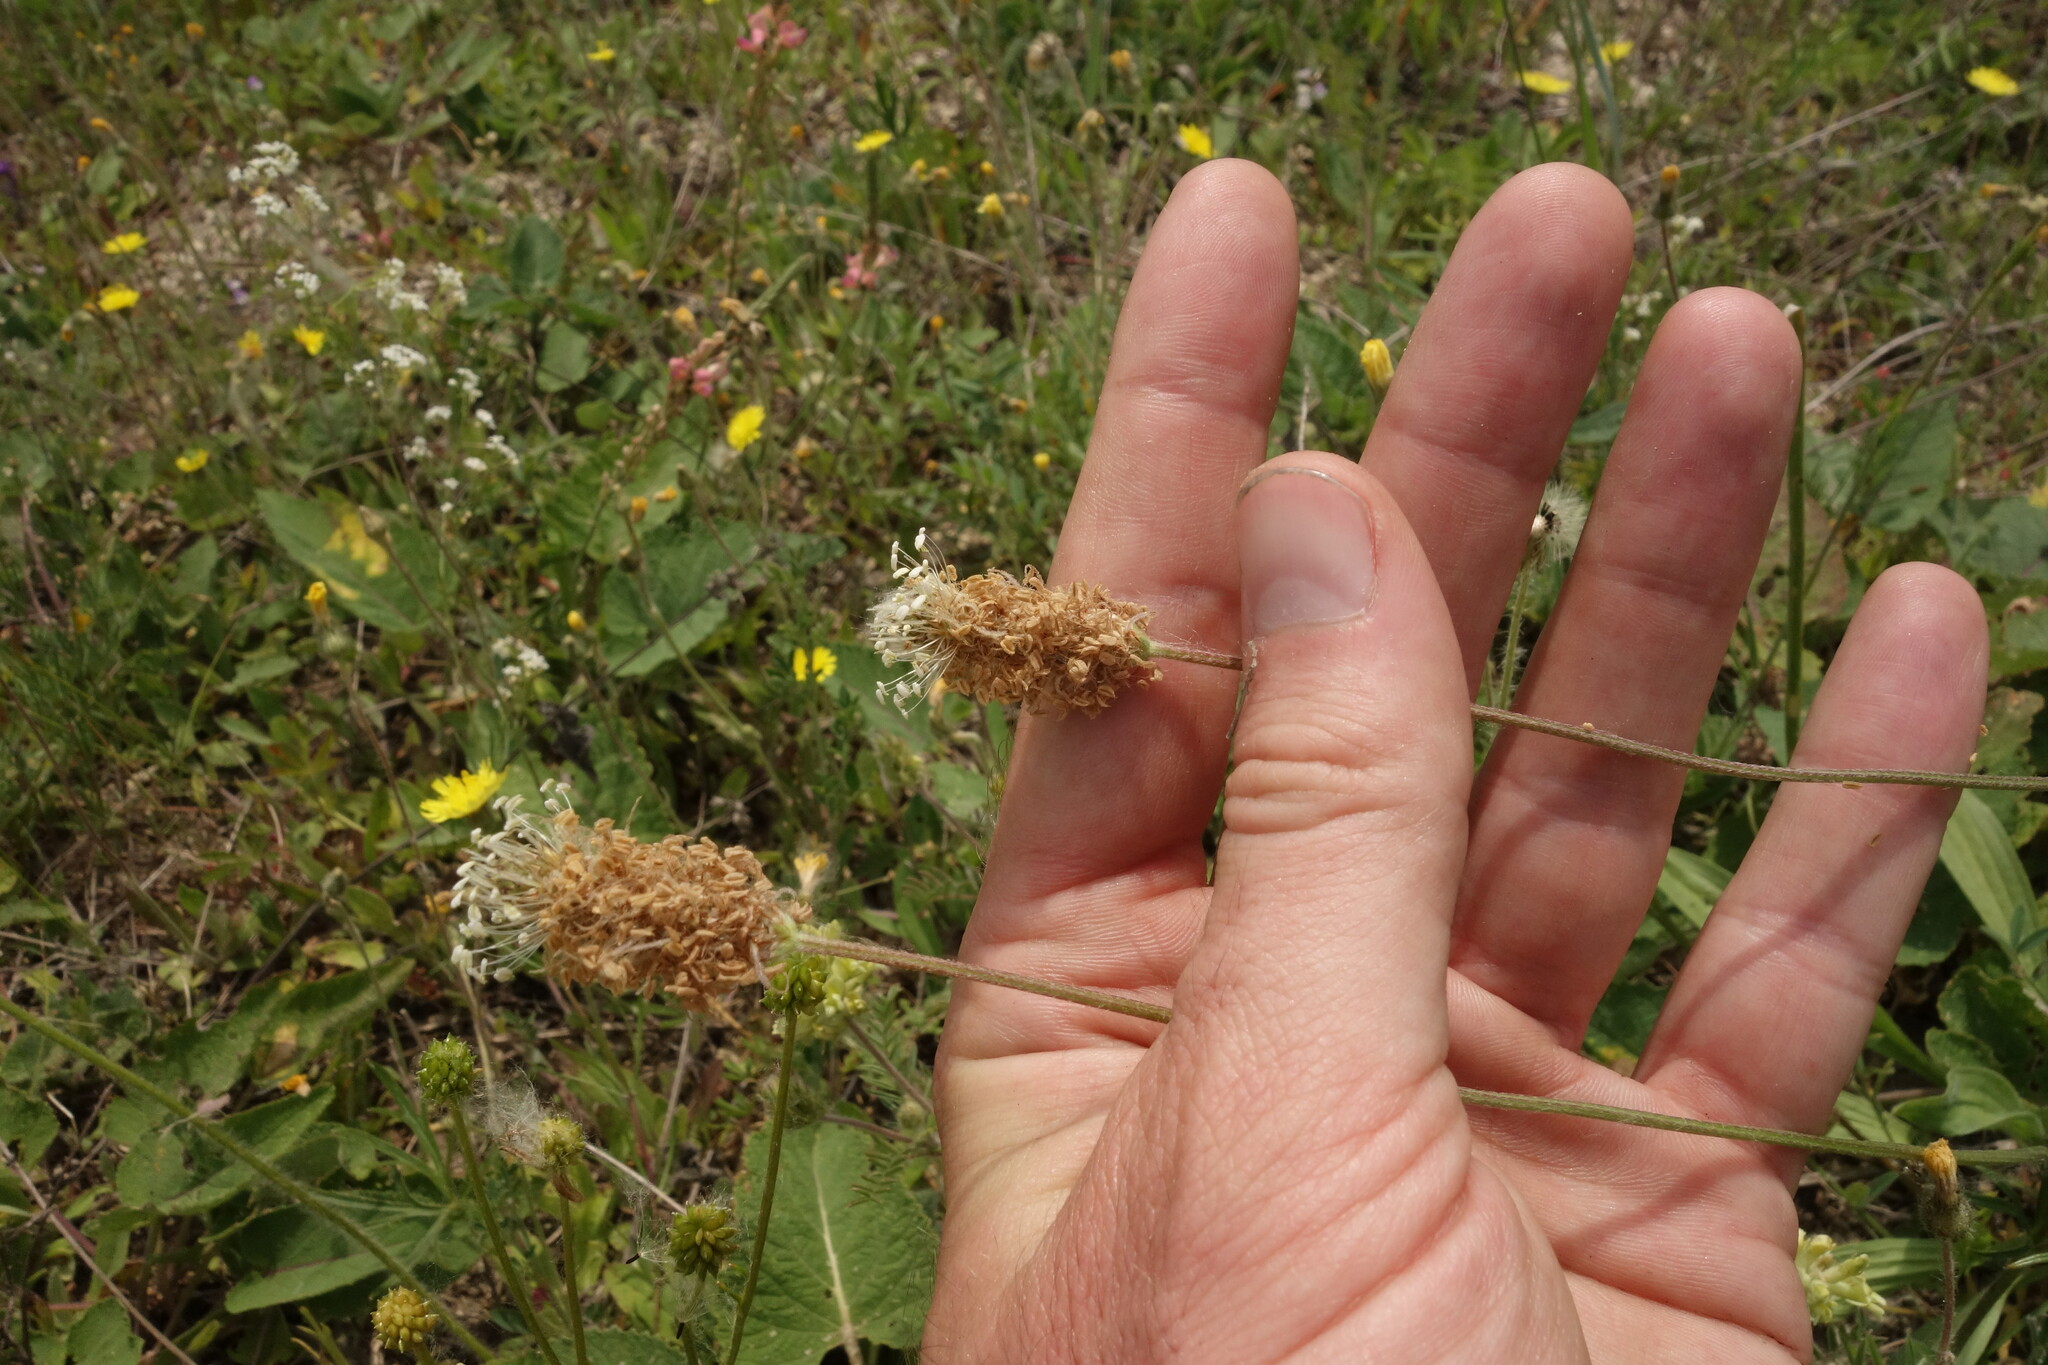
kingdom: Plantae
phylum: Tracheophyta
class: Magnoliopsida
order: Lamiales
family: Plantaginaceae
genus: Plantago
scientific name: Plantago lanceolata
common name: Ribwort plantain
